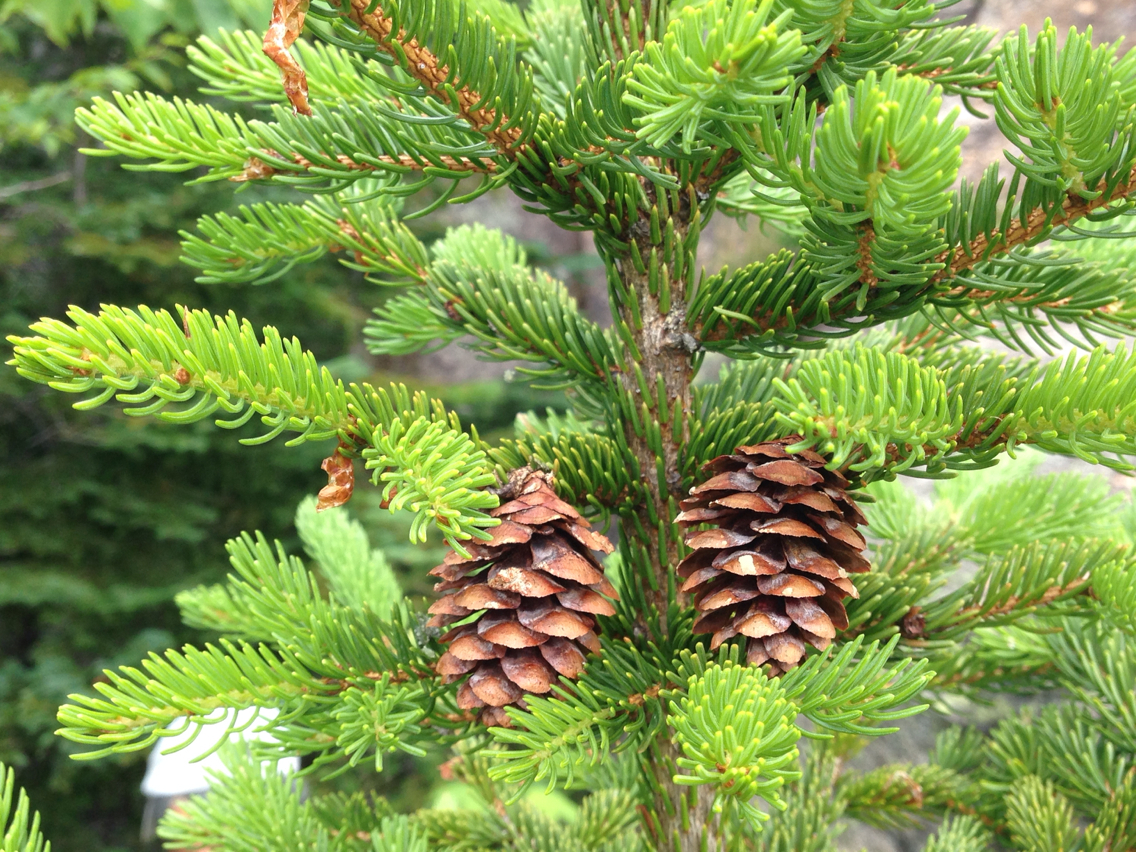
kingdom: Plantae
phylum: Tracheophyta
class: Pinopsida
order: Pinales
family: Pinaceae
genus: Picea
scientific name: Picea rubens
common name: Red spruce
